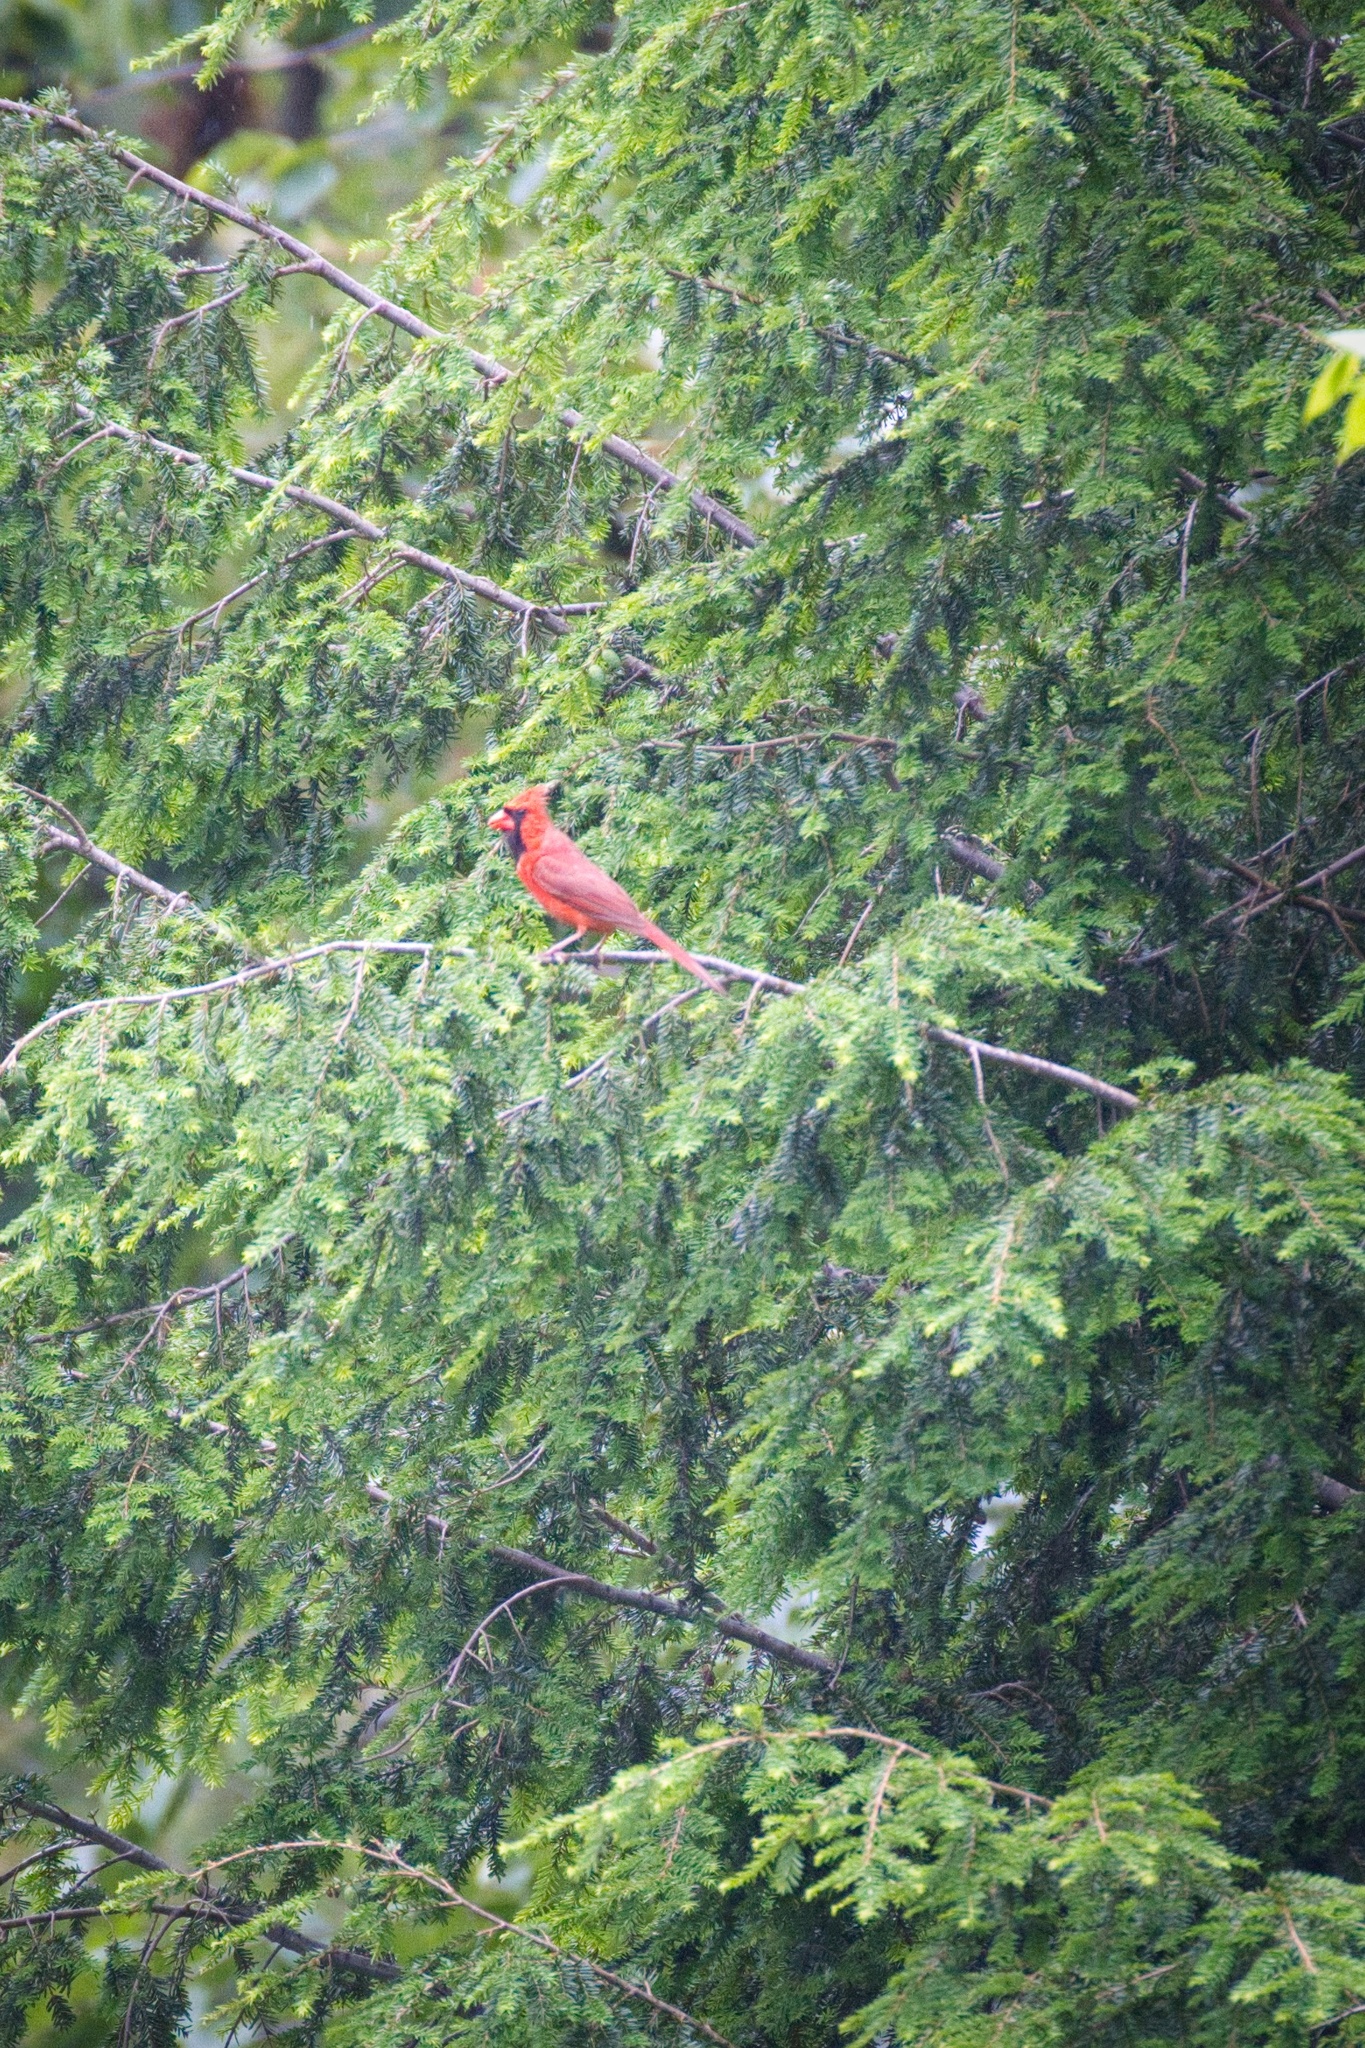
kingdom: Animalia
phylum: Chordata
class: Aves
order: Passeriformes
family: Cardinalidae
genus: Cardinalis
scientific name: Cardinalis cardinalis
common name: Northern cardinal
